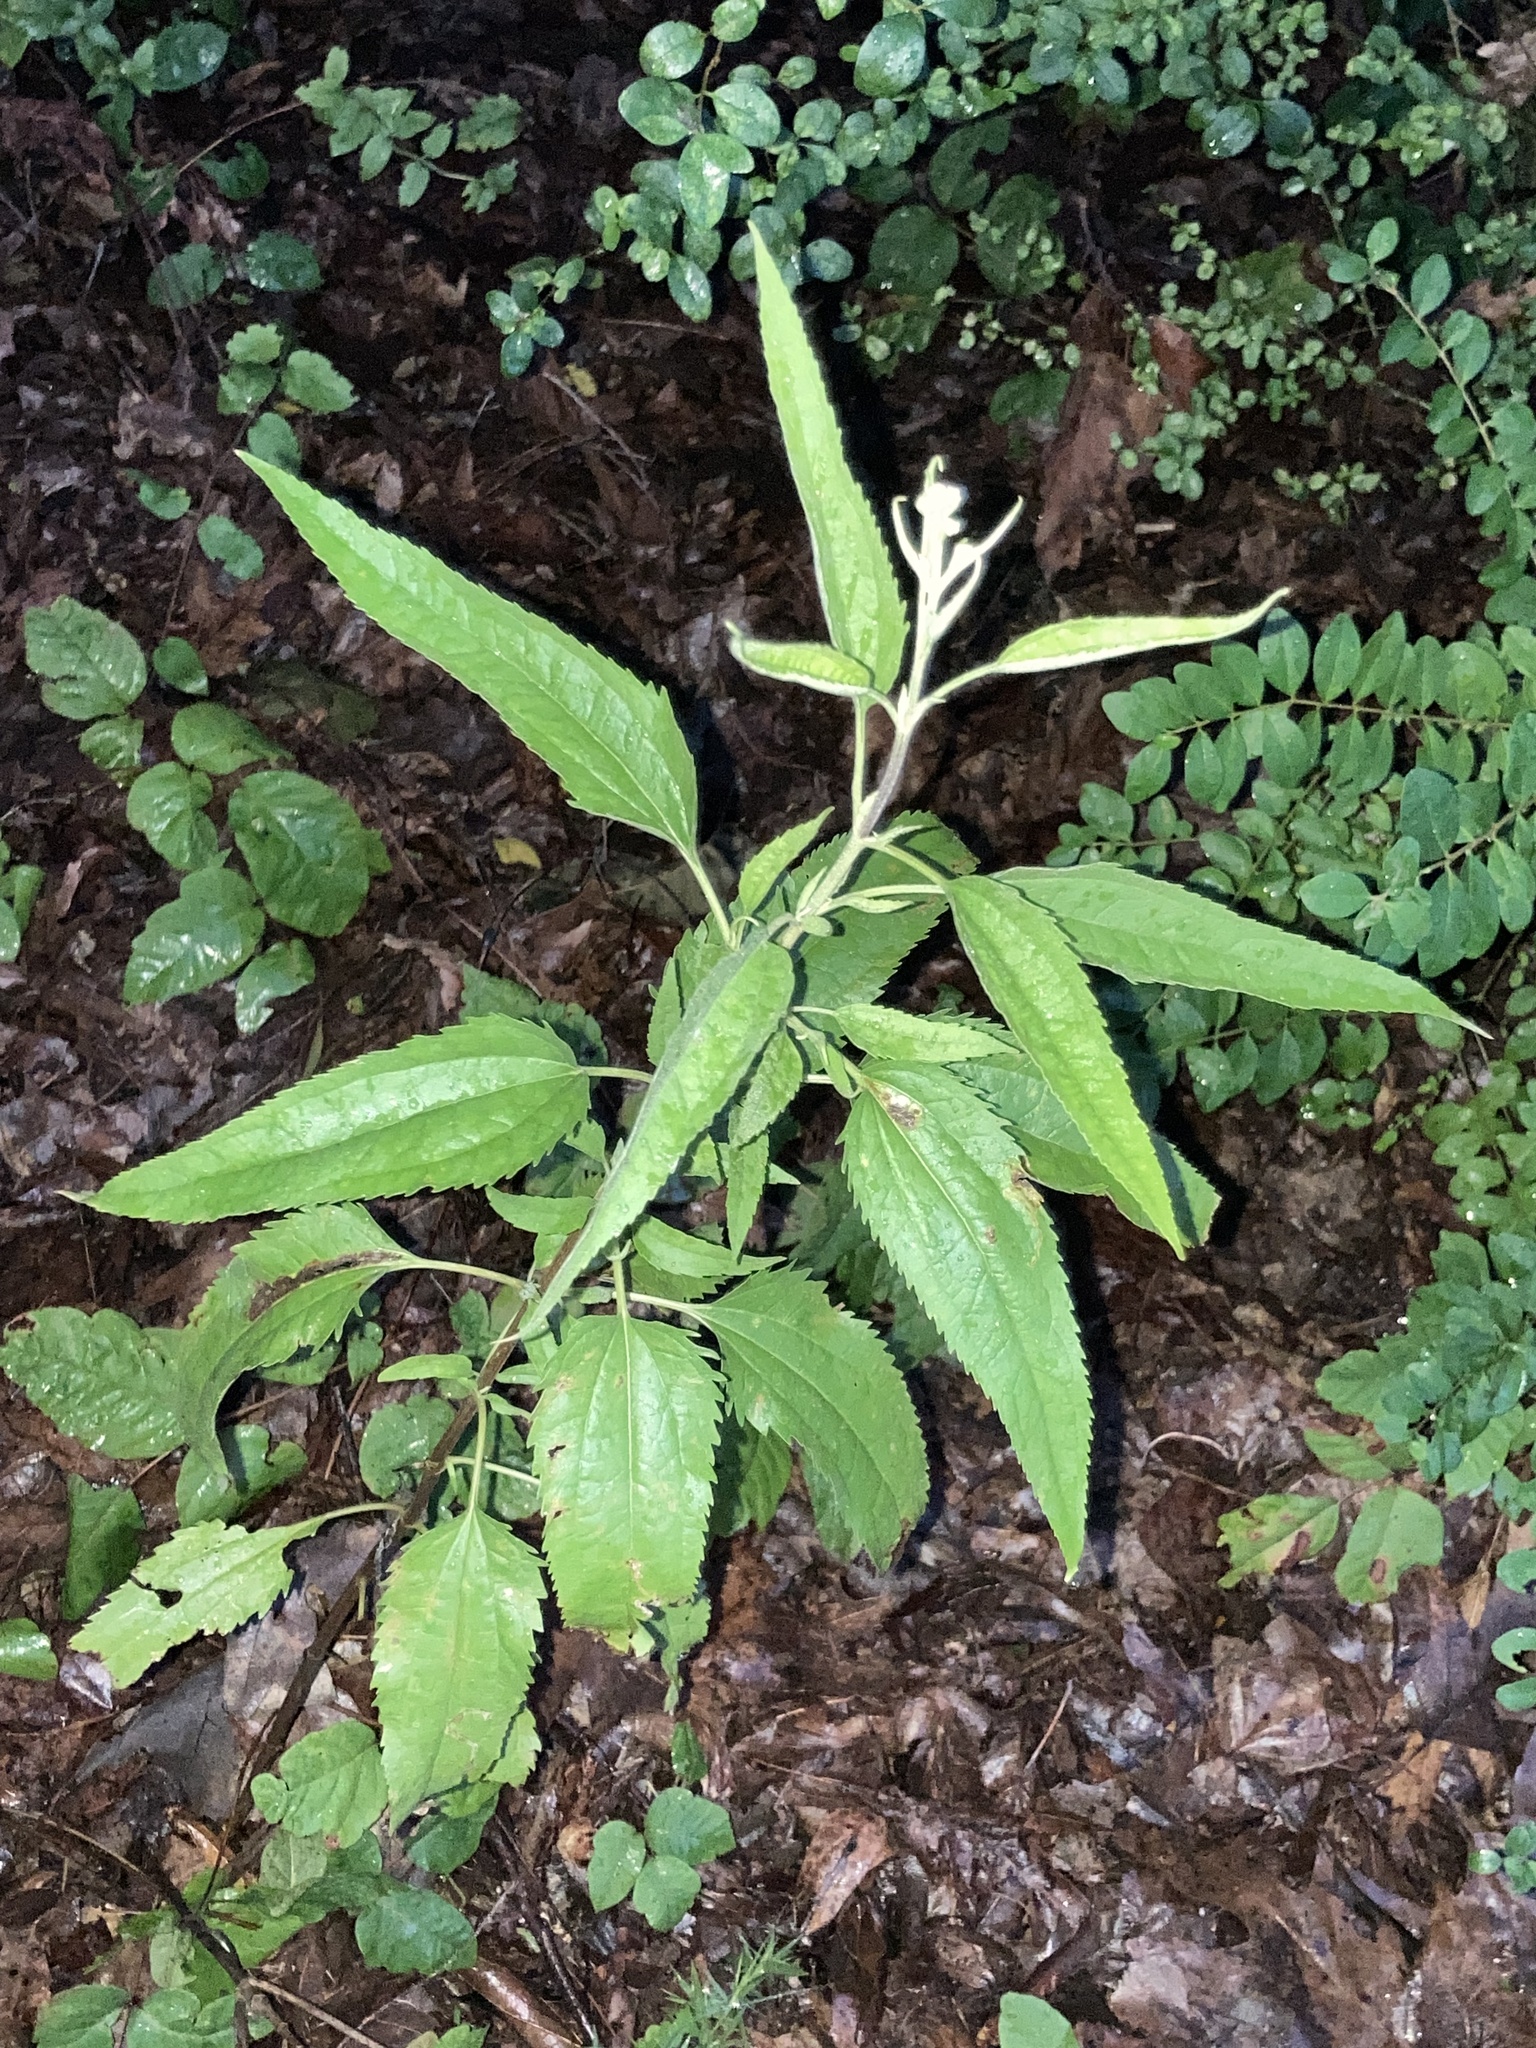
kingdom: Plantae
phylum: Tracheophyta
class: Magnoliopsida
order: Asterales
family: Asteraceae
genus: Eupatorium
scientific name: Eupatorium serotinum
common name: Late boneset
